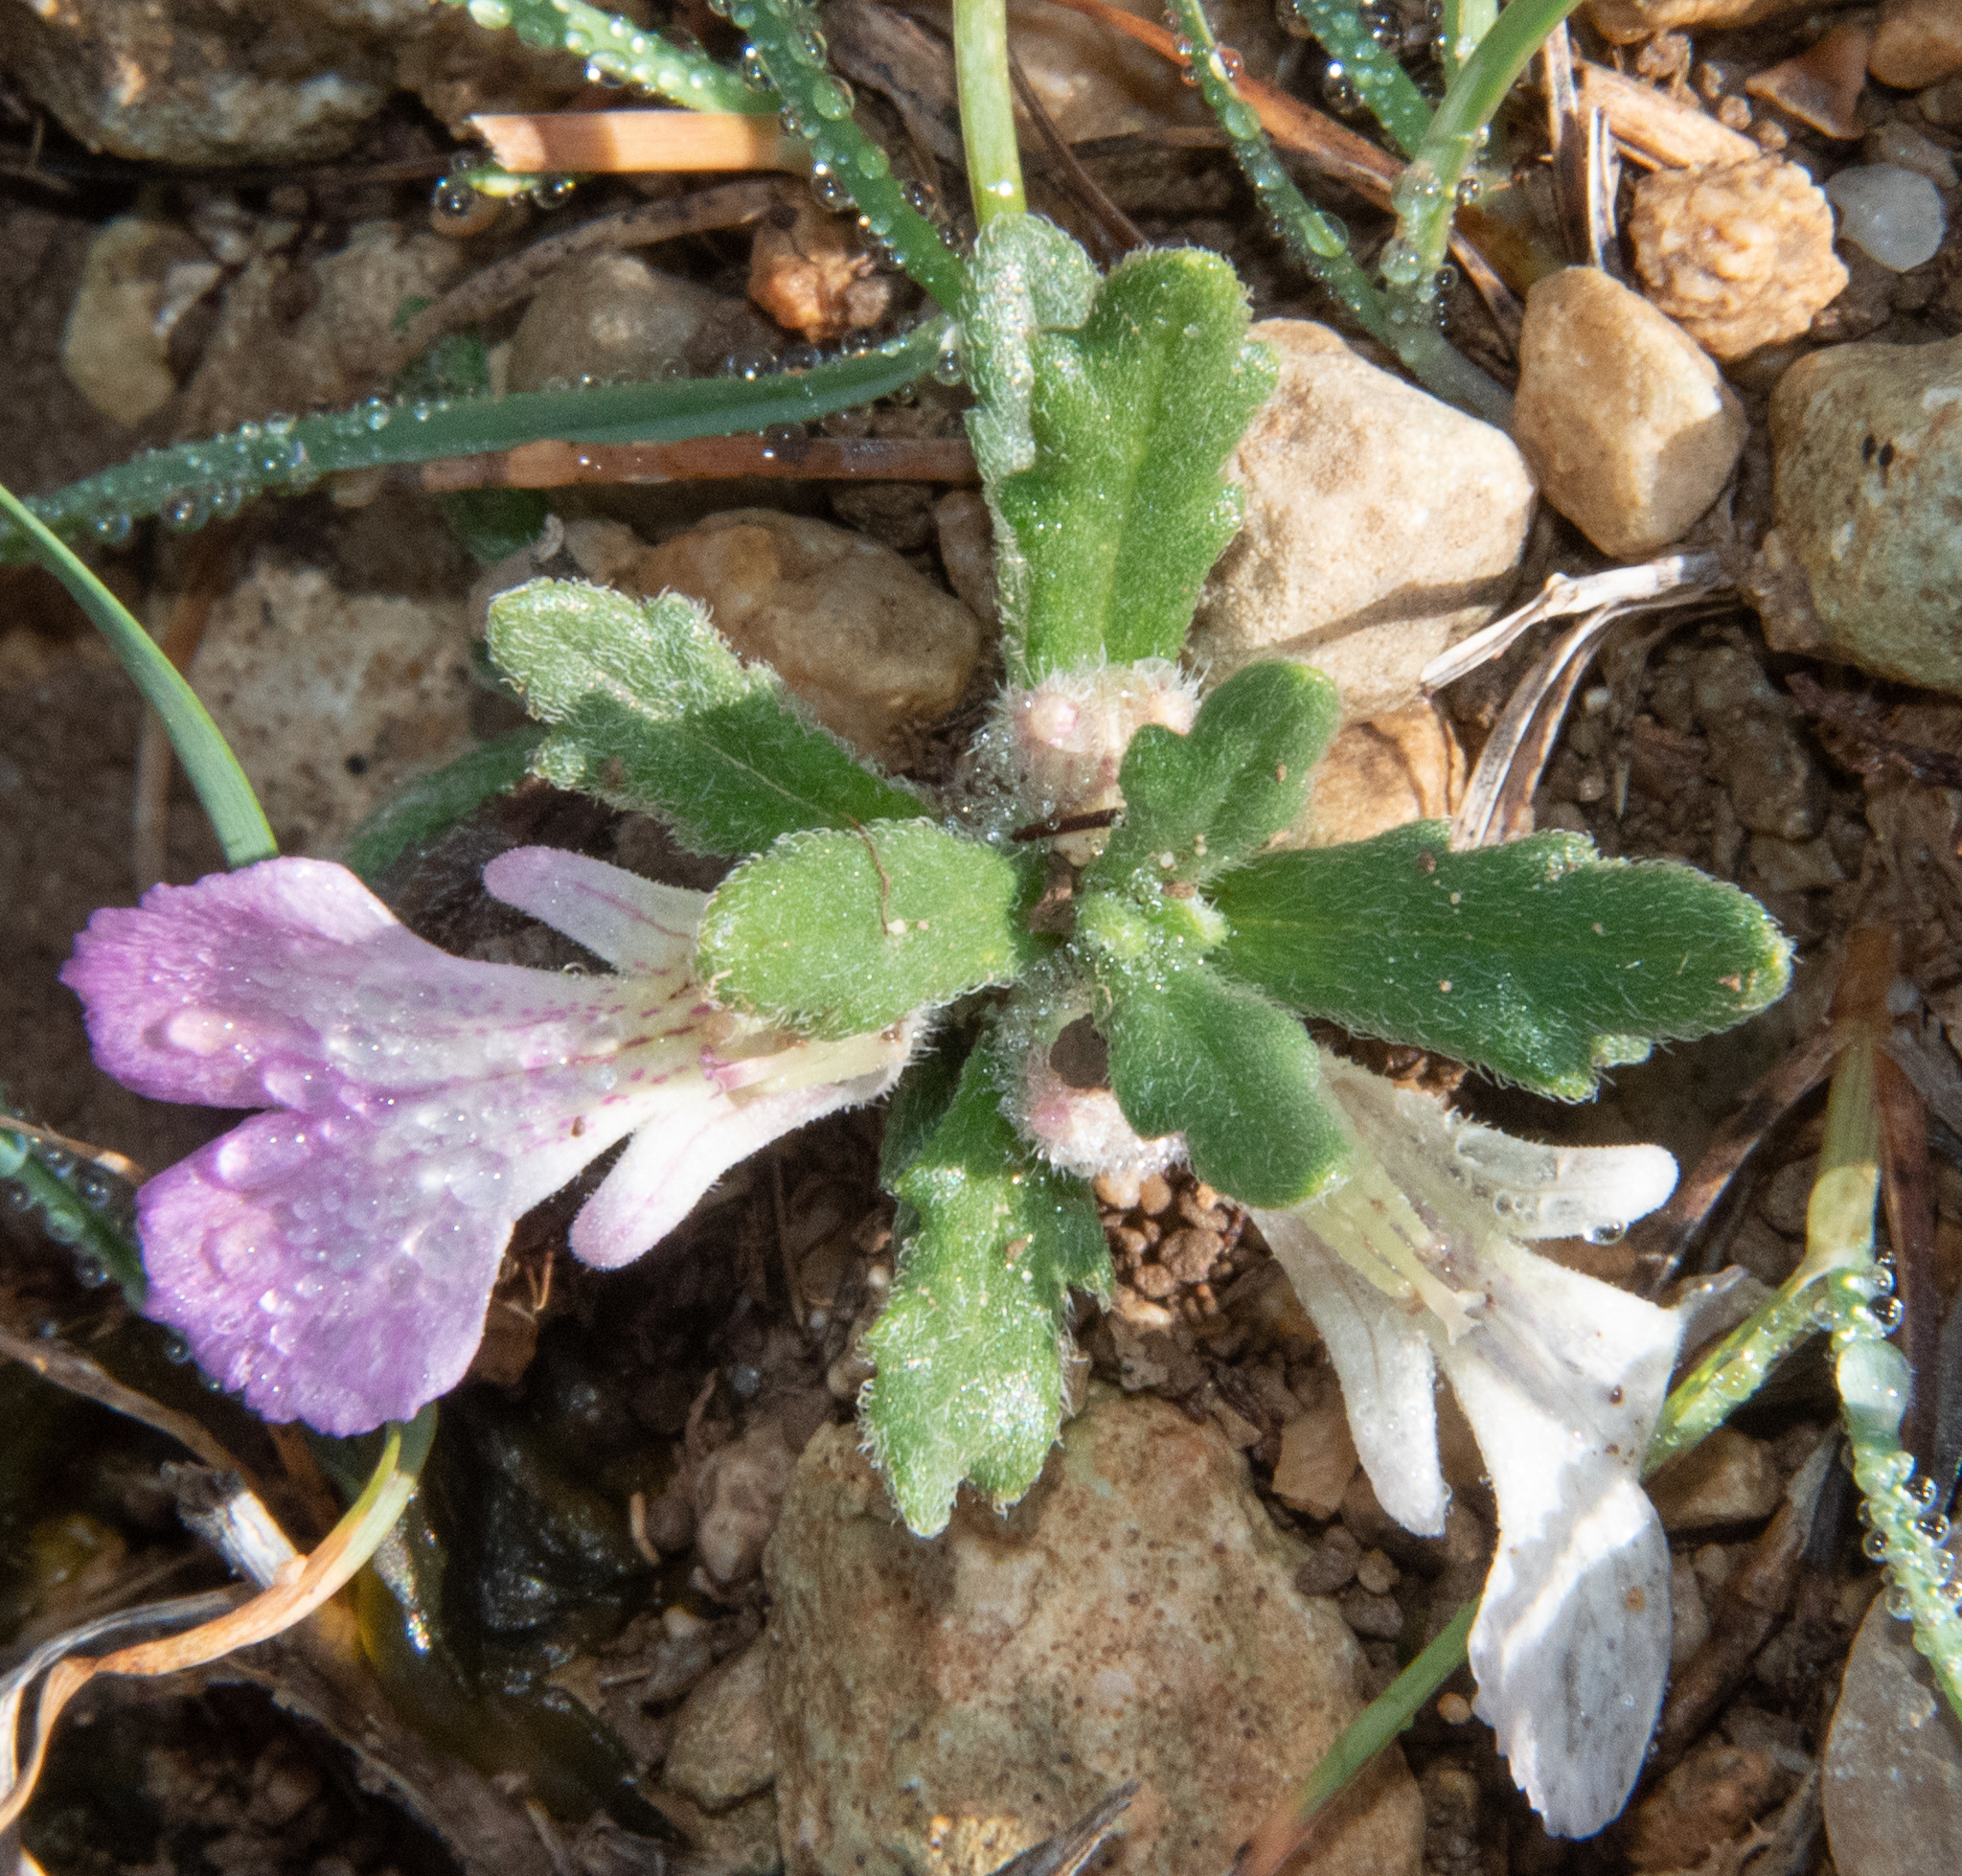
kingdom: Plantae
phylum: Tracheophyta
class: Magnoliopsida
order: Lamiales
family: Lamiaceae
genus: Ajuga
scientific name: Ajuga iva
